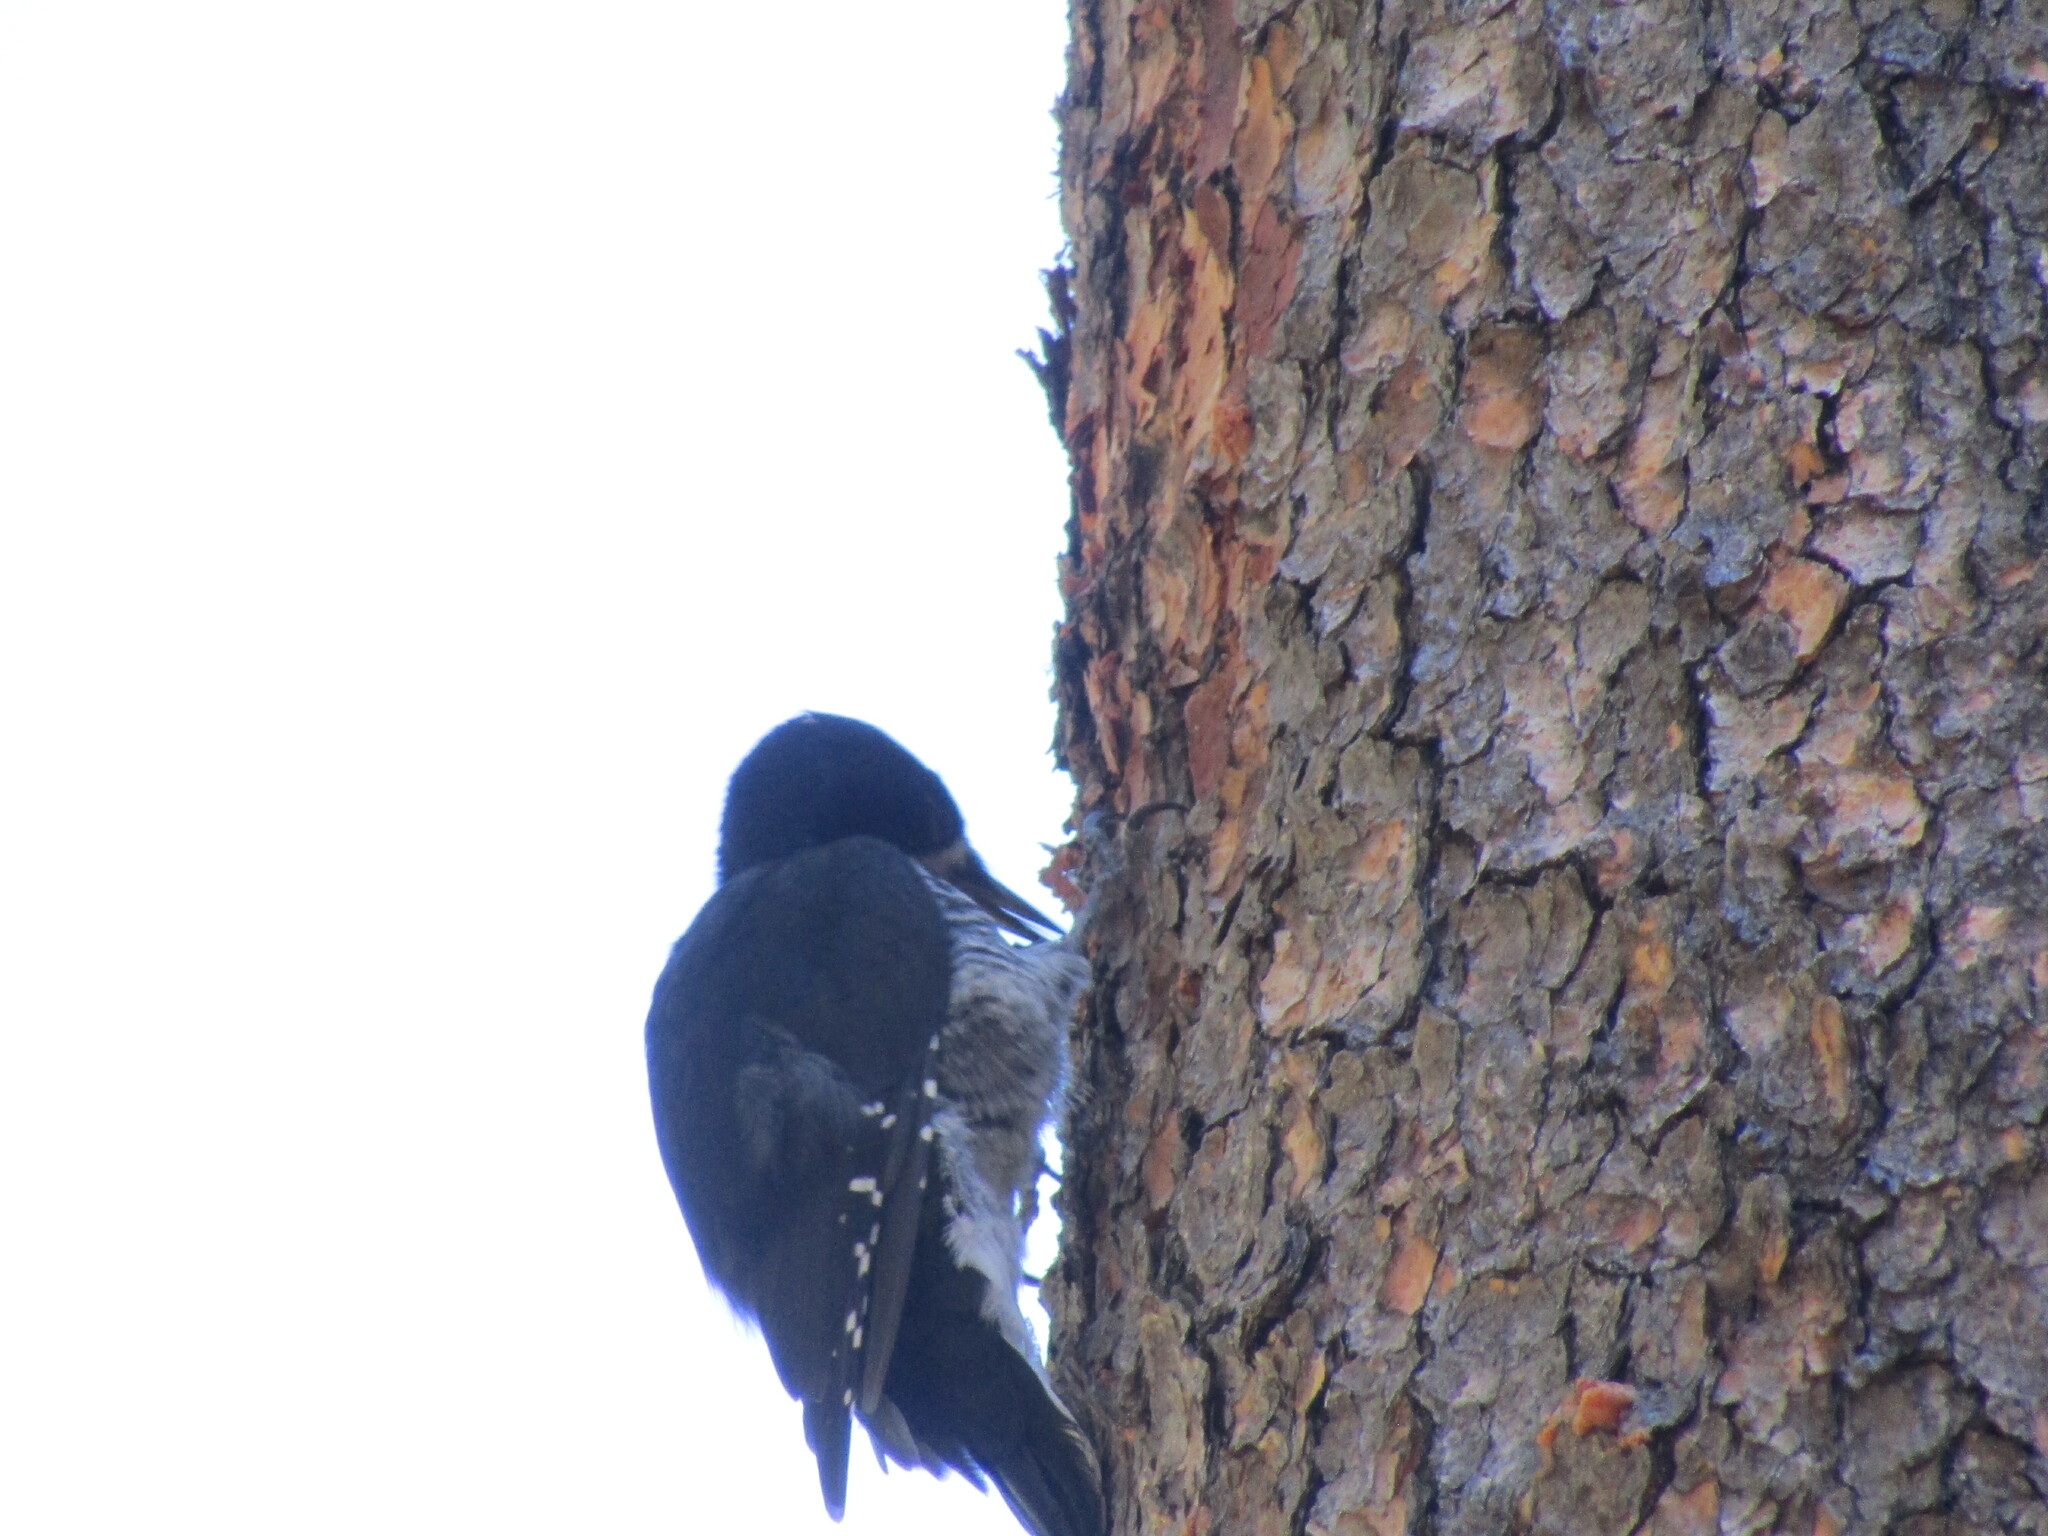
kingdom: Animalia
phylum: Chordata
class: Aves
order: Piciformes
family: Picidae
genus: Picoides
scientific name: Picoides arcticus
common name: Black-backed woodpecker
